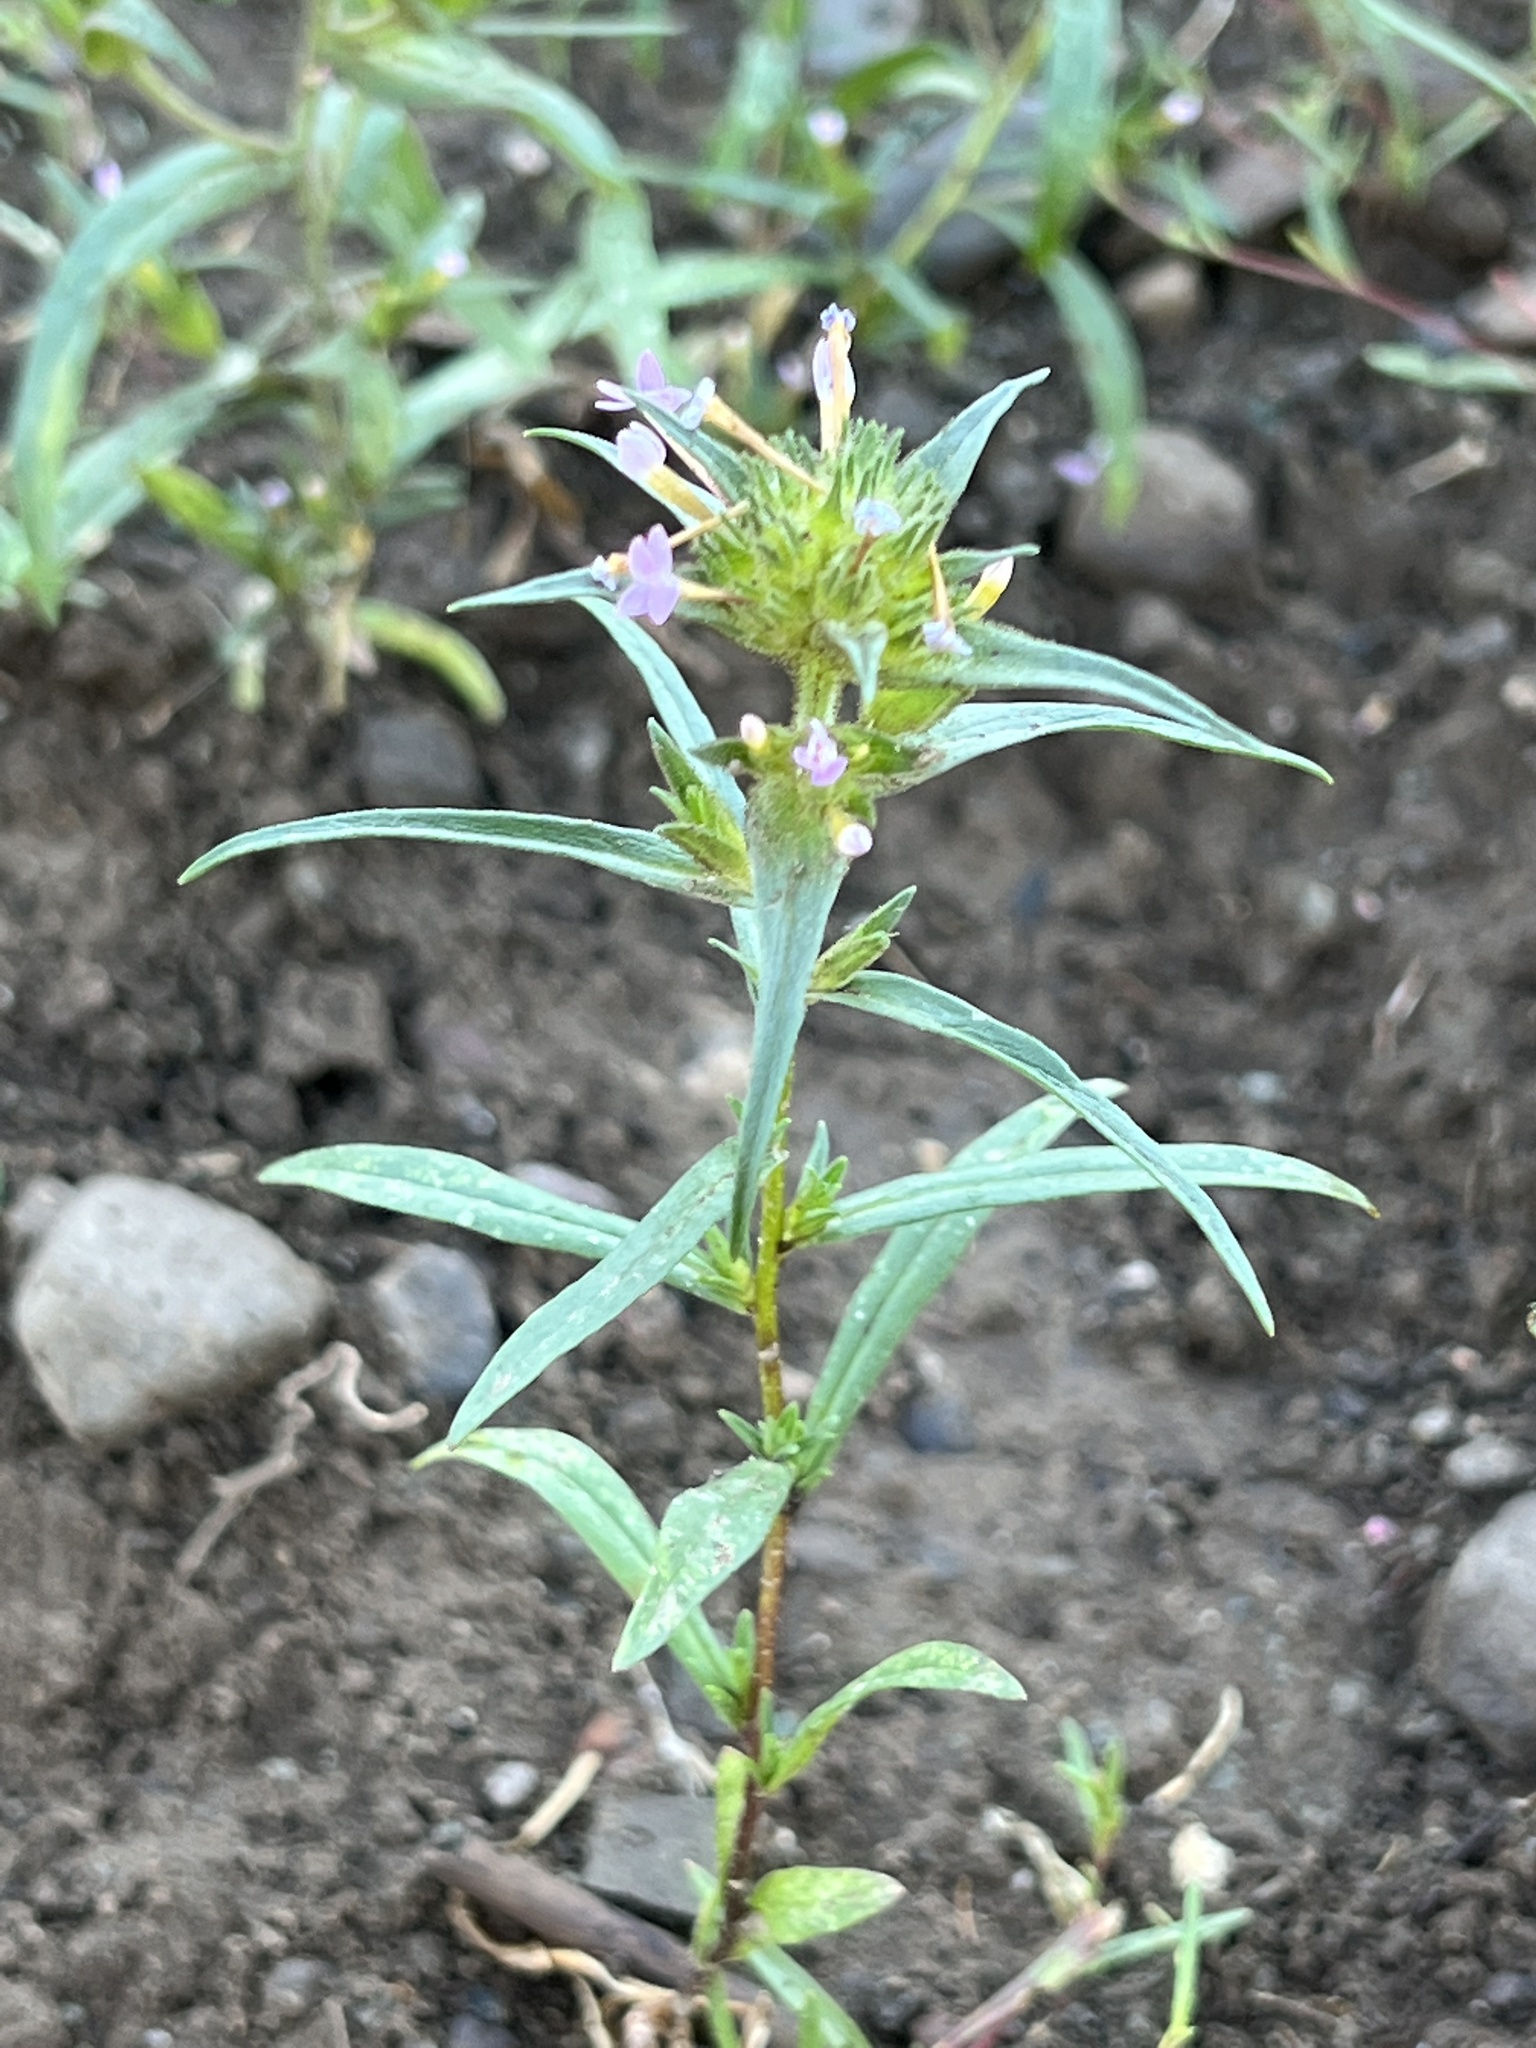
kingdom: Plantae
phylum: Tracheophyta
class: Magnoliopsida
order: Ericales
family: Polemoniaceae
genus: Collomia
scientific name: Collomia linearis
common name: Tiny trumpet
